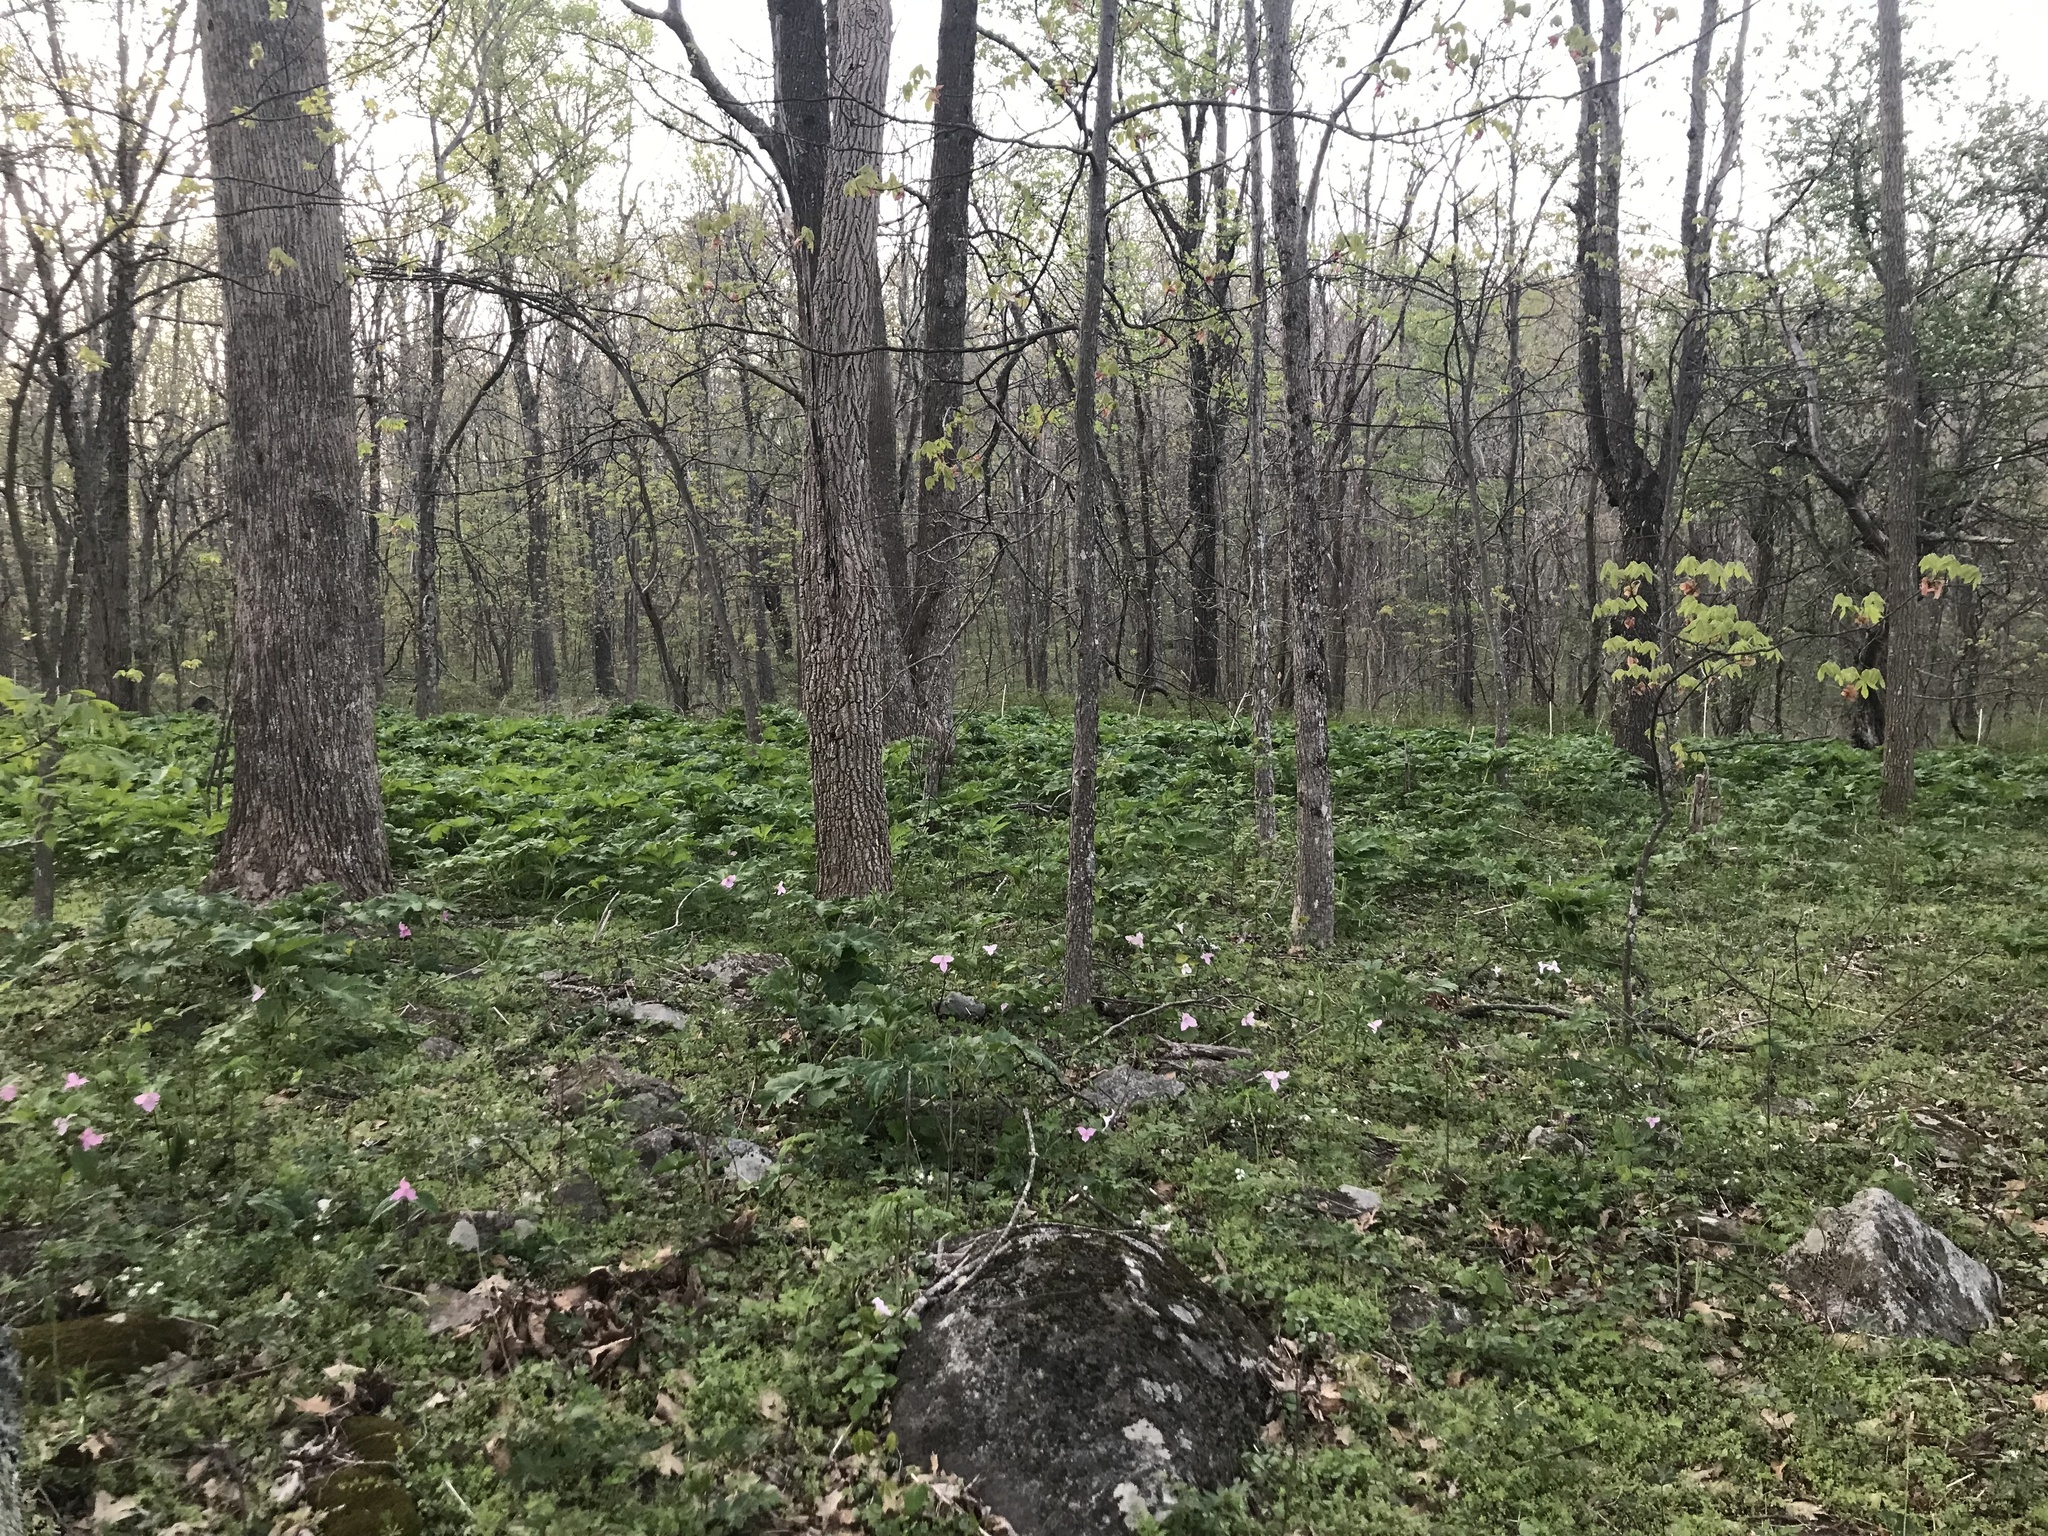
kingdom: Plantae
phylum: Tracheophyta
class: Liliopsida
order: Liliales
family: Melanthiaceae
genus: Trillium
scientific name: Trillium grandiflorum
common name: Great white trillium
